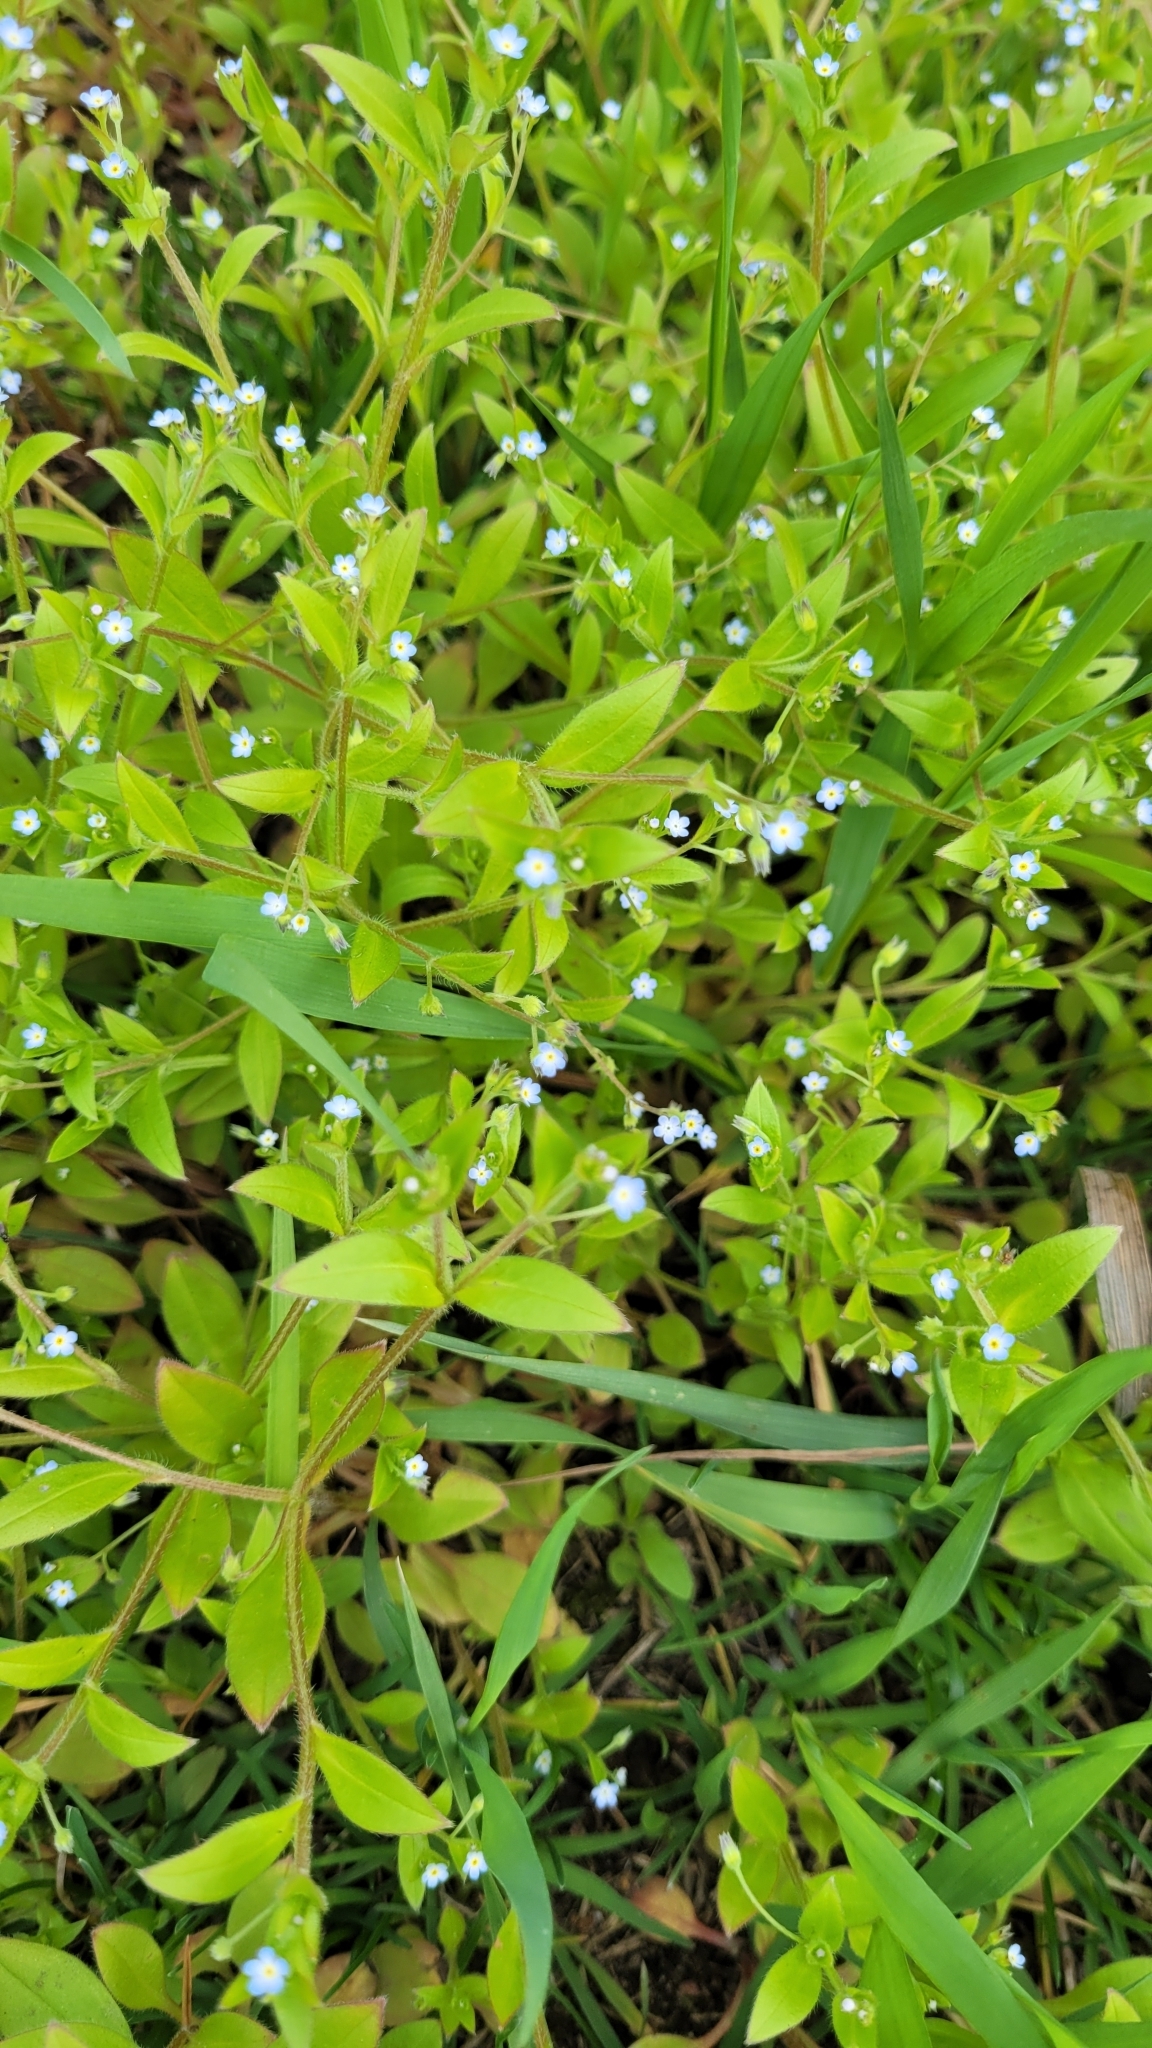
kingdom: Plantae
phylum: Tracheophyta
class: Magnoliopsida
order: Boraginales
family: Boraginaceae
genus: Myosotis
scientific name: Myosotis sparsiflora
